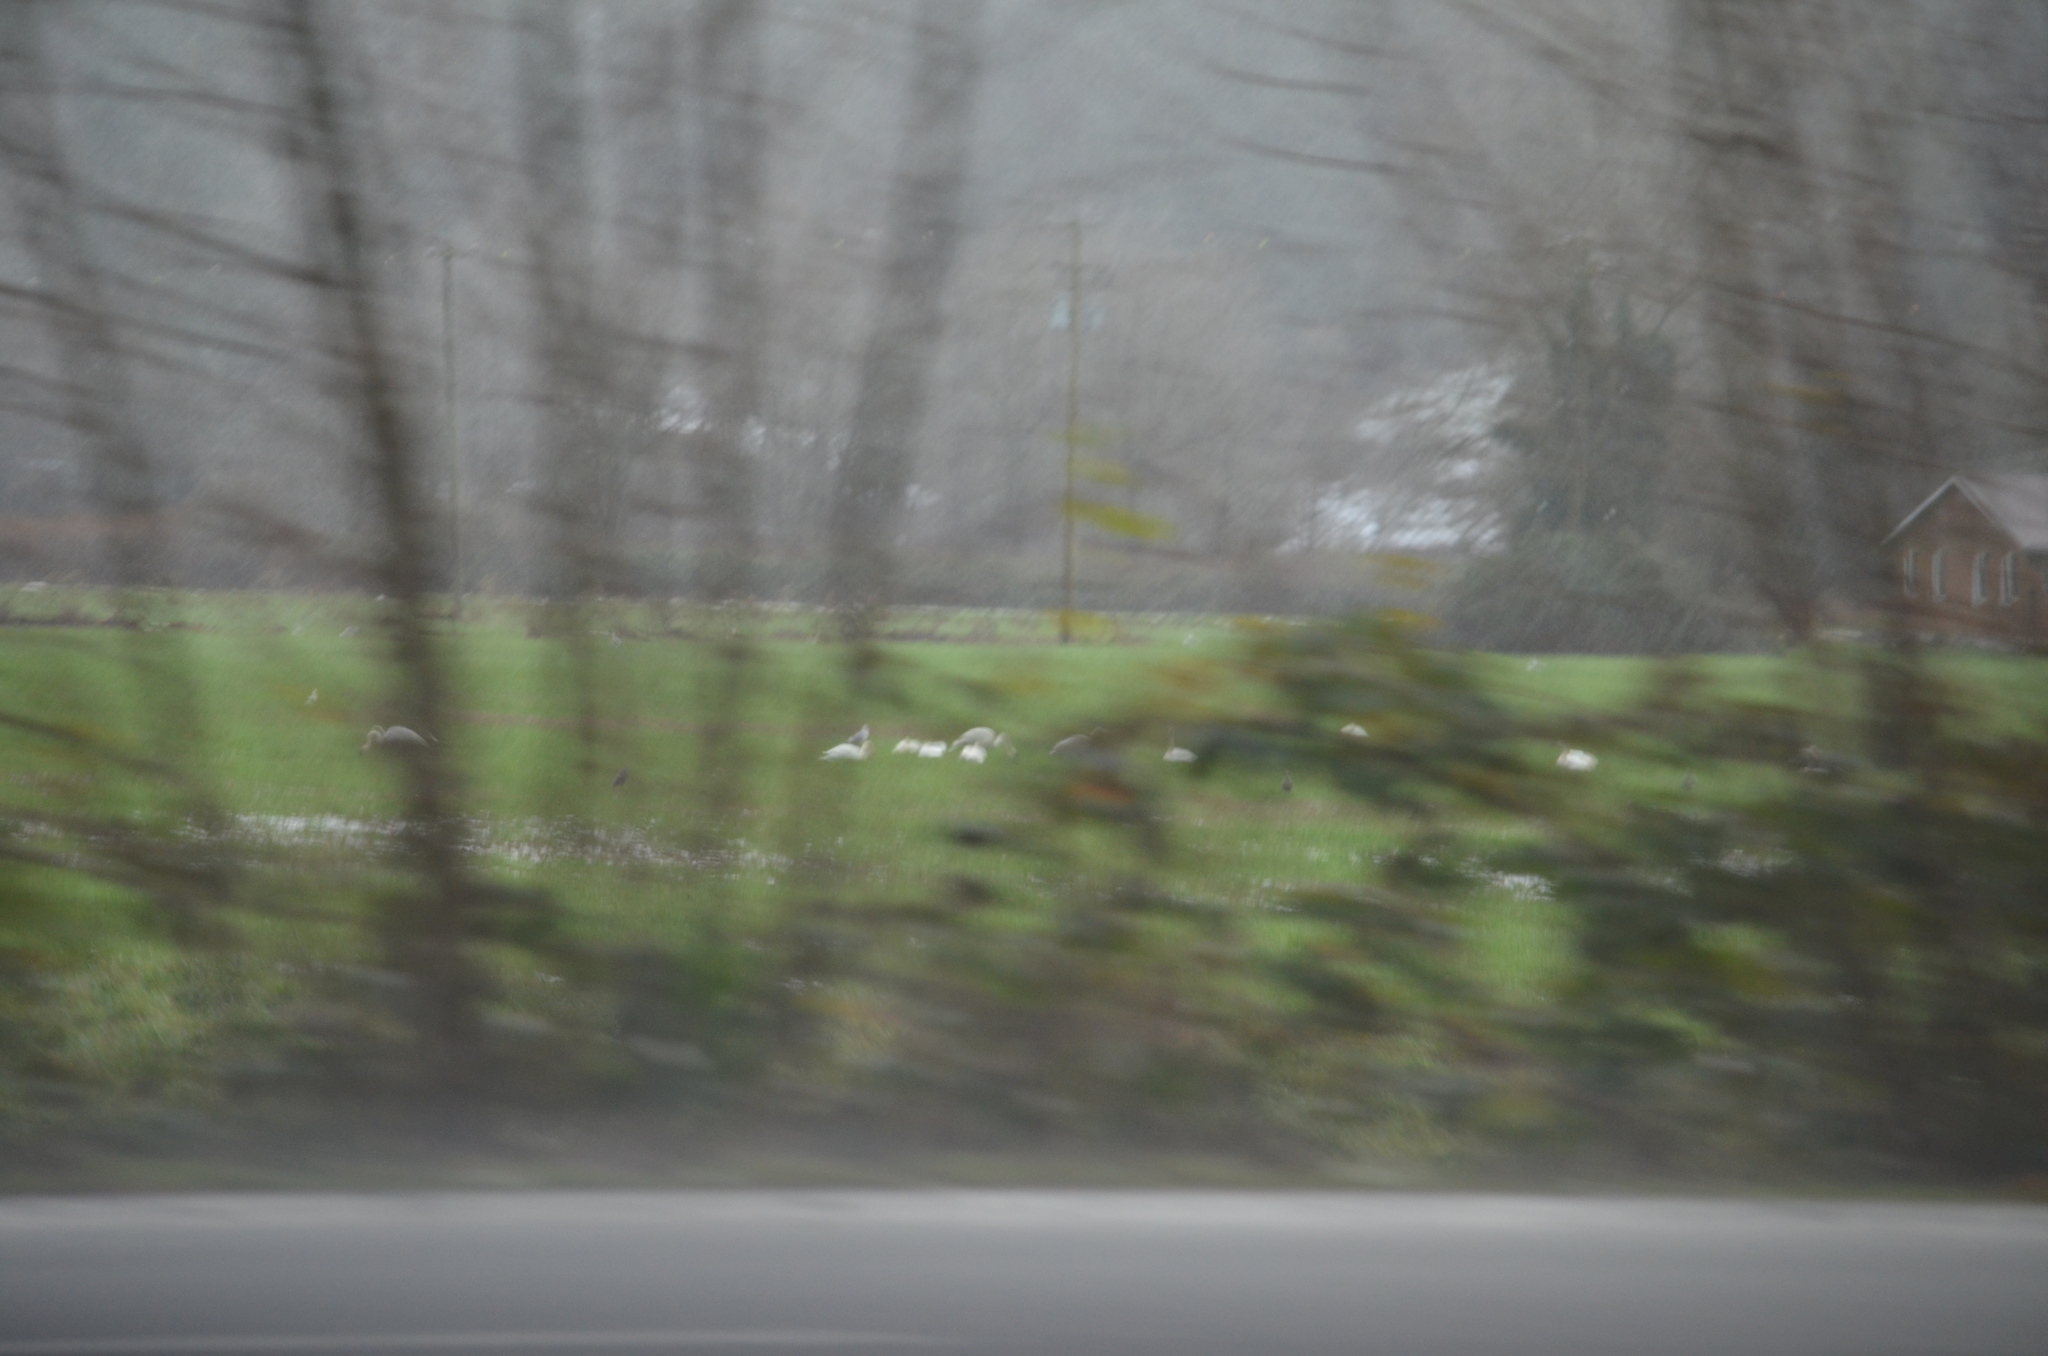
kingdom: Animalia
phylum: Chordata
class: Aves
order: Anseriformes
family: Anatidae
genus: Cygnus
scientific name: Cygnus buccinator
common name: Trumpeter swan
